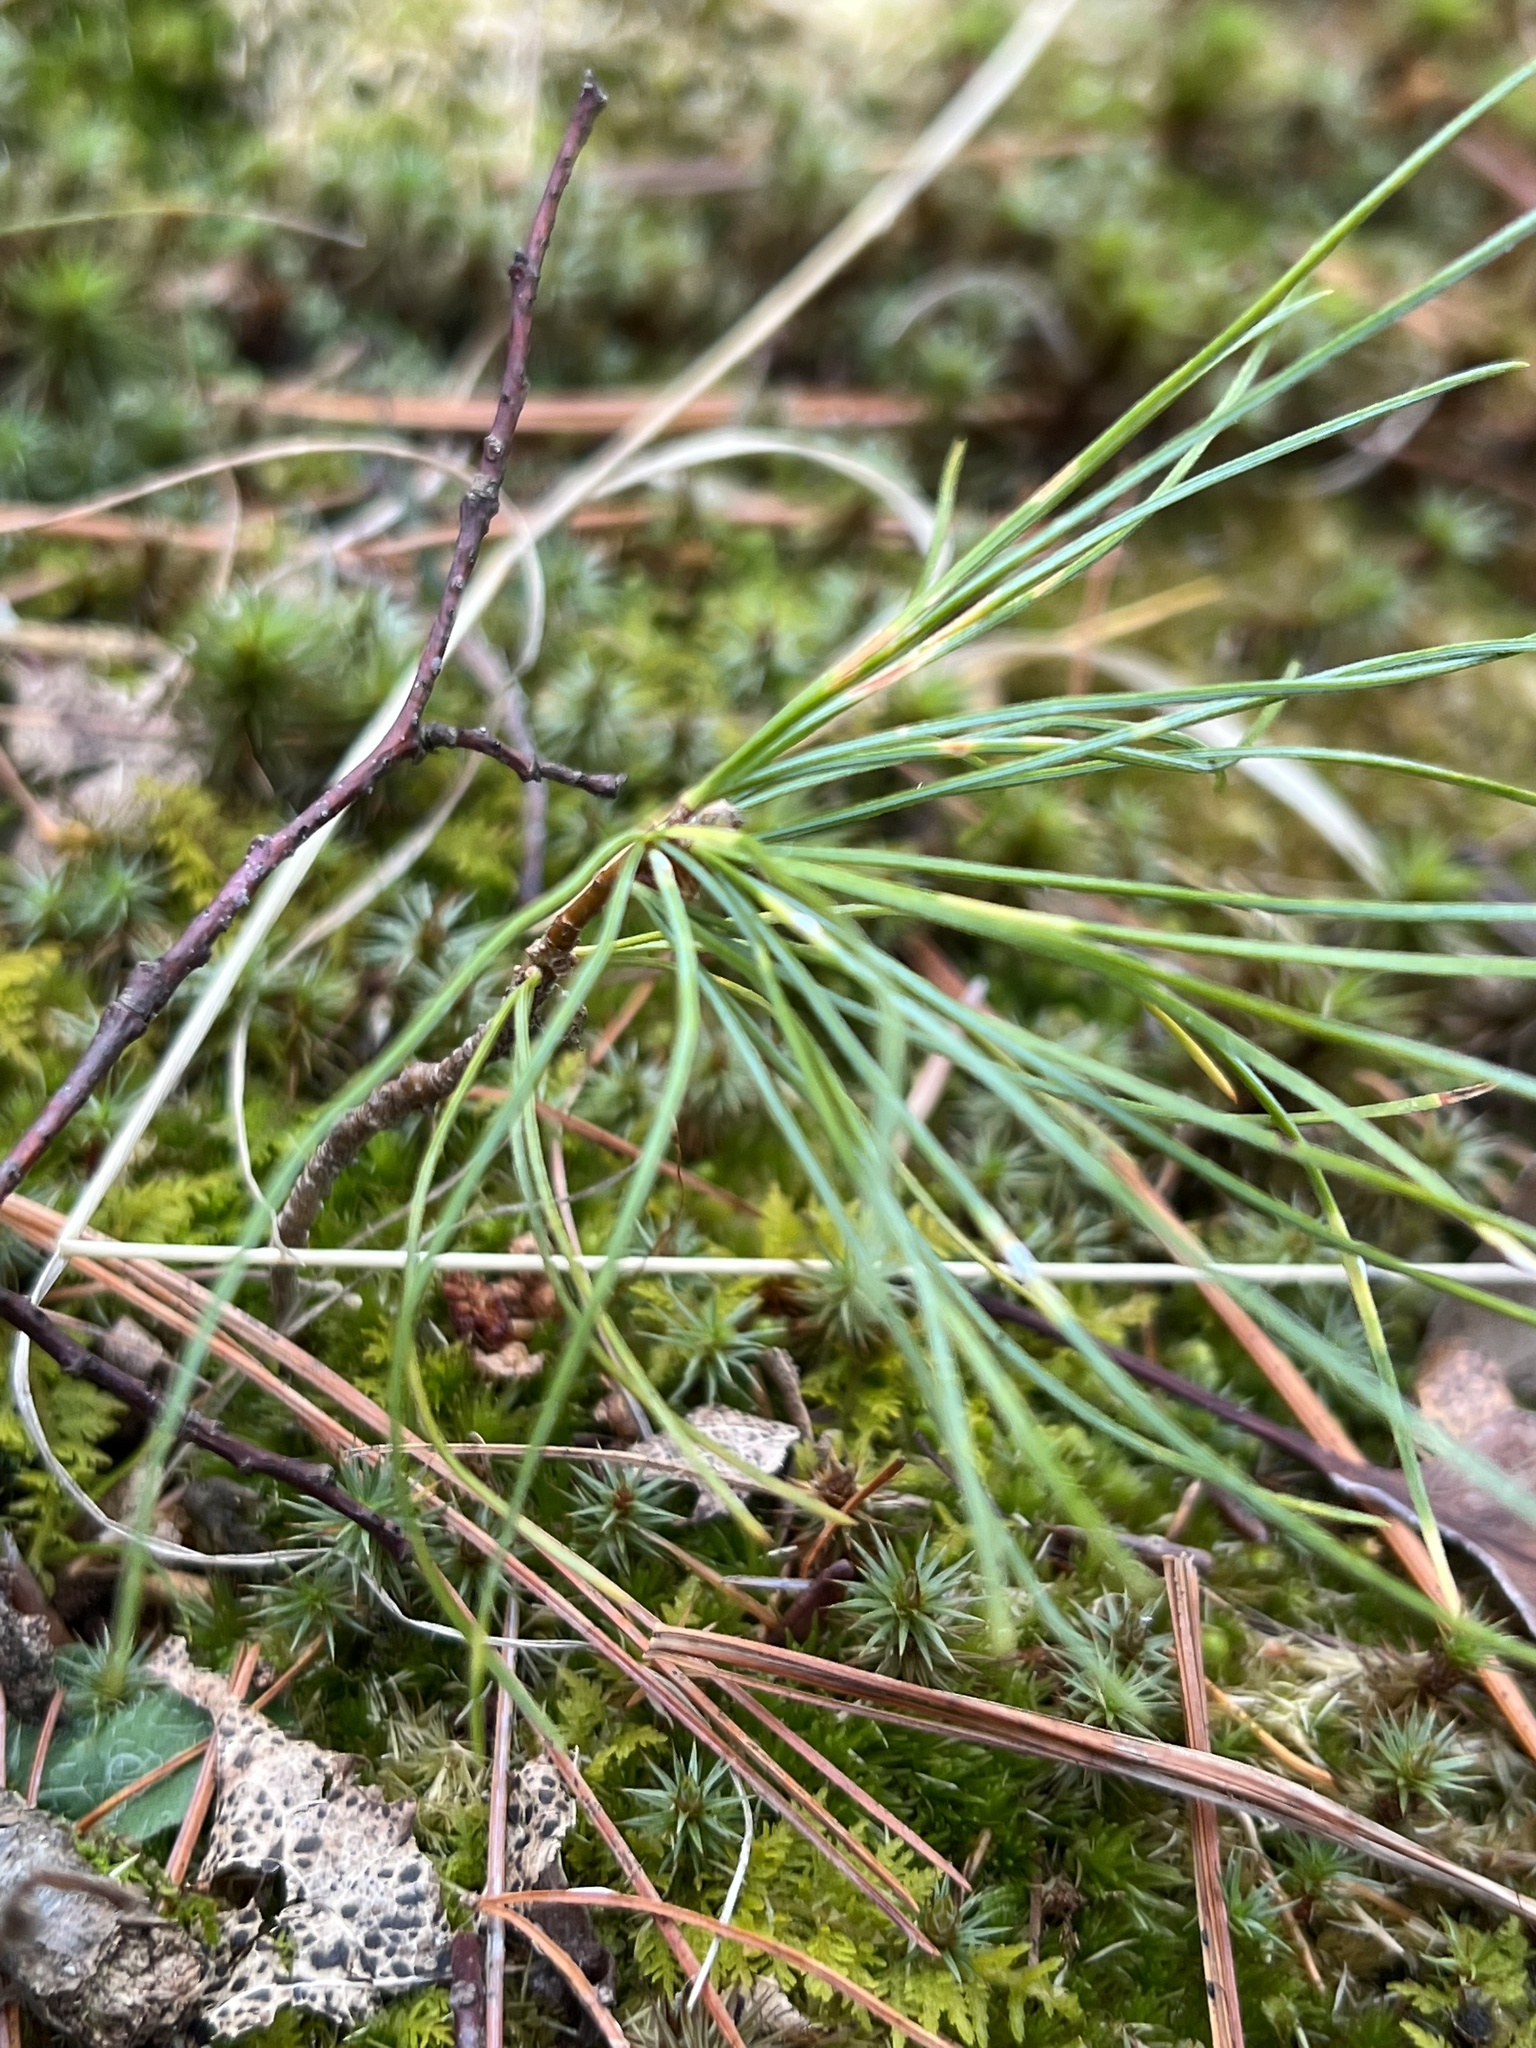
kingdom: Plantae
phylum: Tracheophyta
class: Pinopsida
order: Pinales
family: Pinaceae
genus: Pinus
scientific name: Pinus strobus
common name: Weymouth pine
